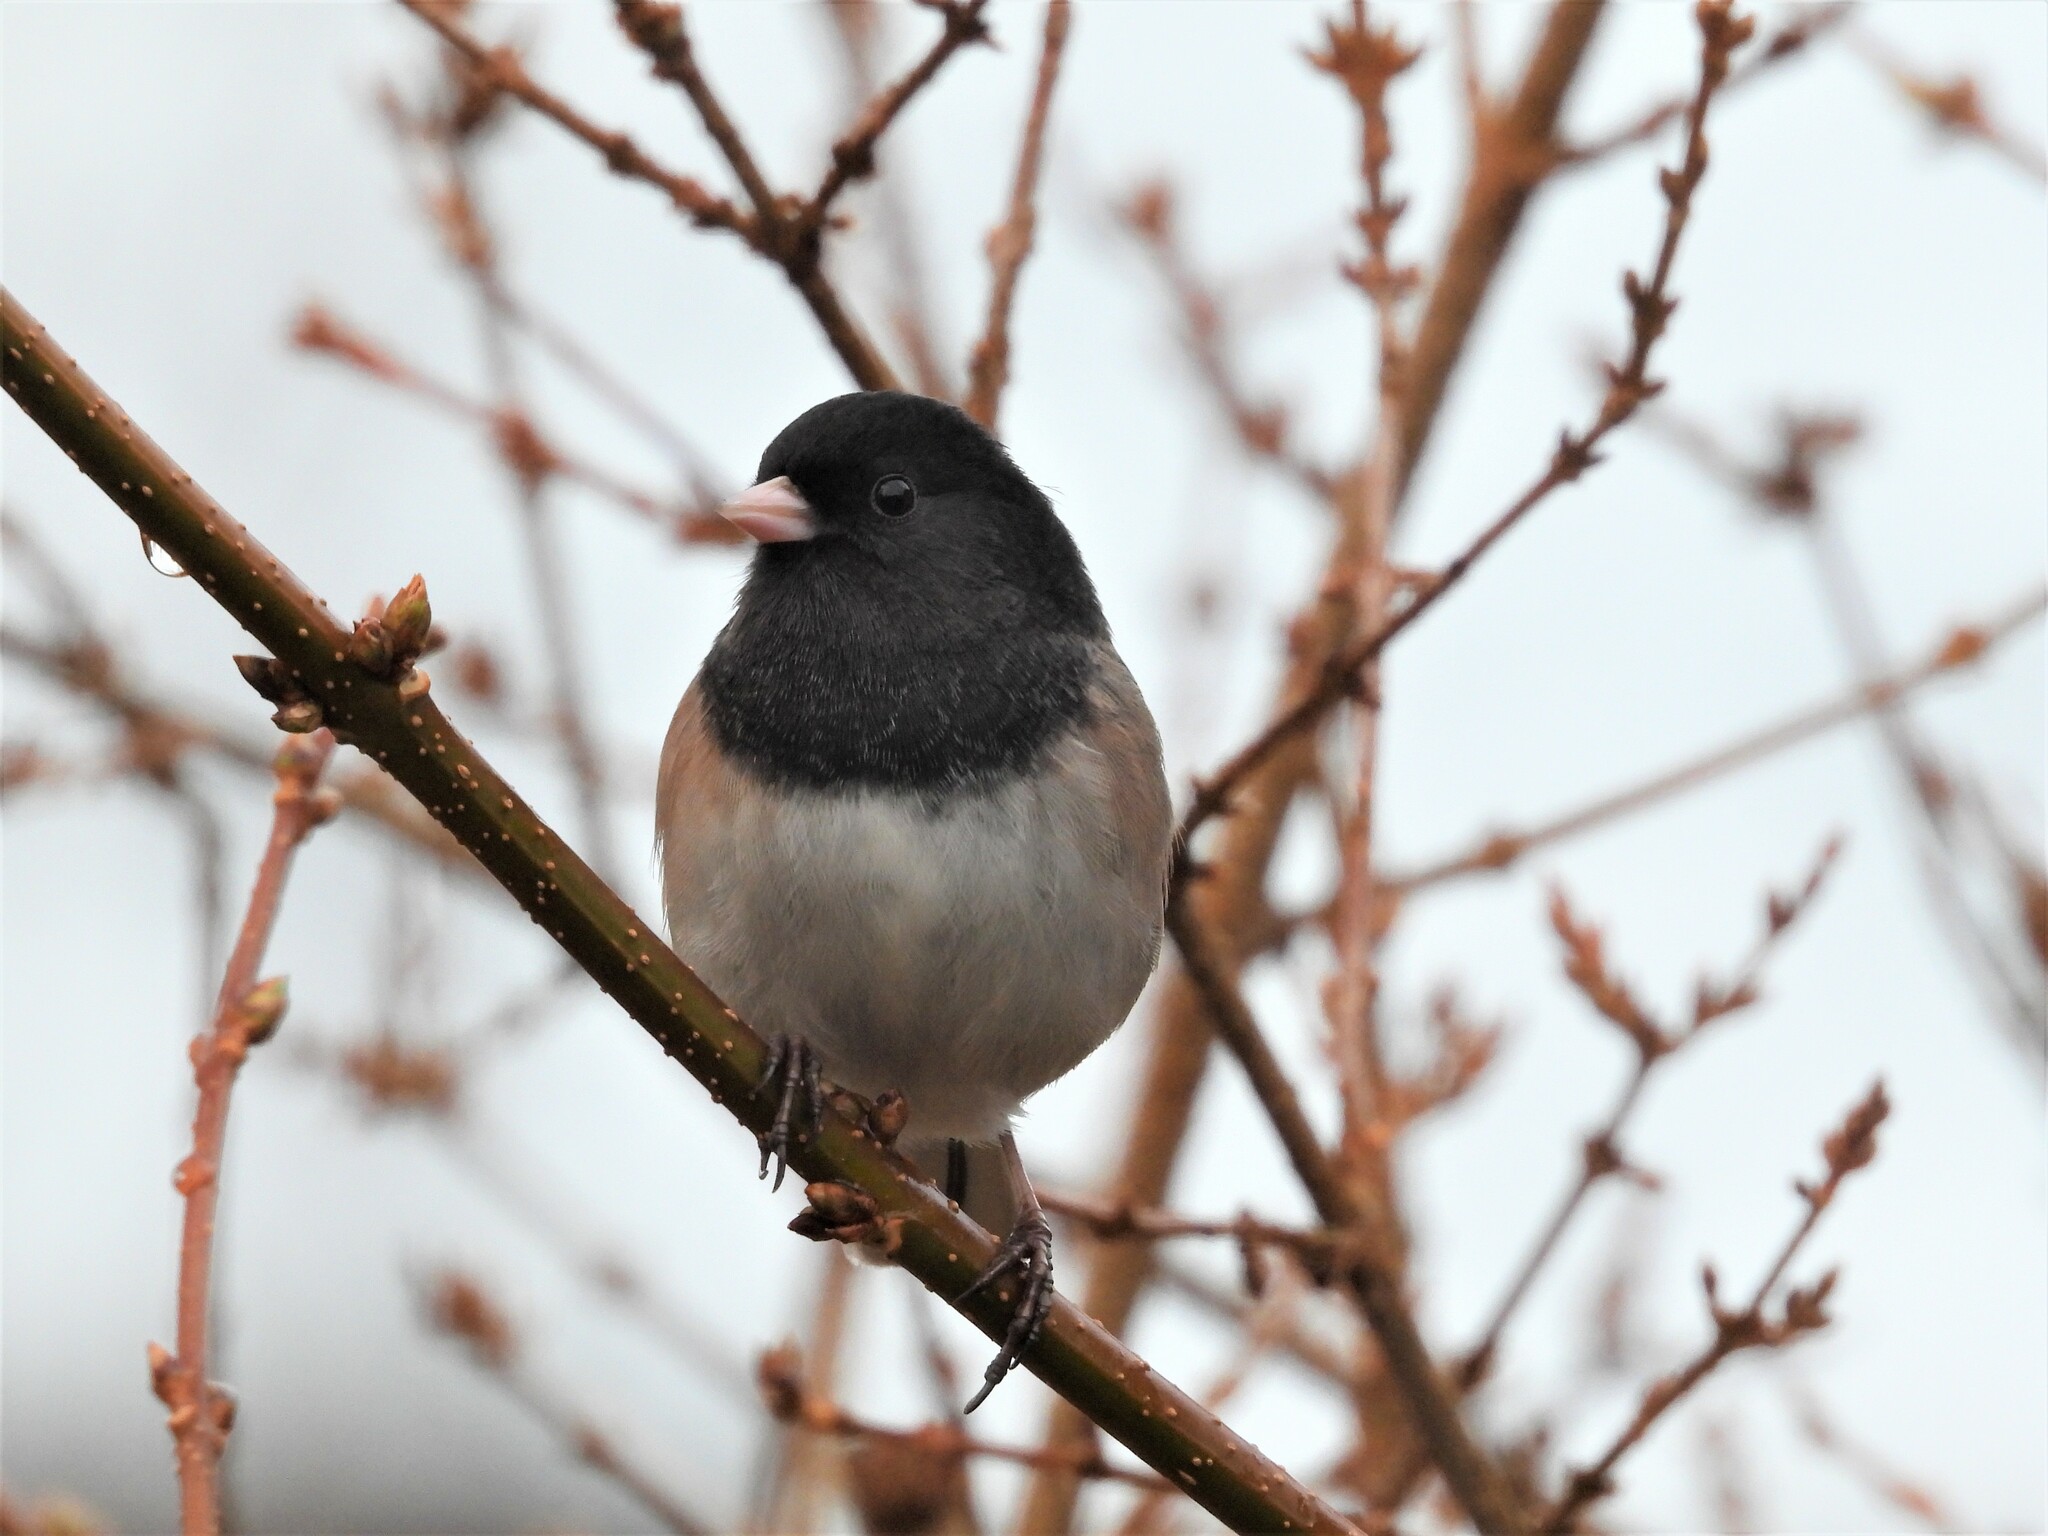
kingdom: Animalia
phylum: Chordata
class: Aves
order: Passeriformes
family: Passerellidae
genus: Junco
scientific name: Junco hyemalis
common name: Dark-eyed junco
